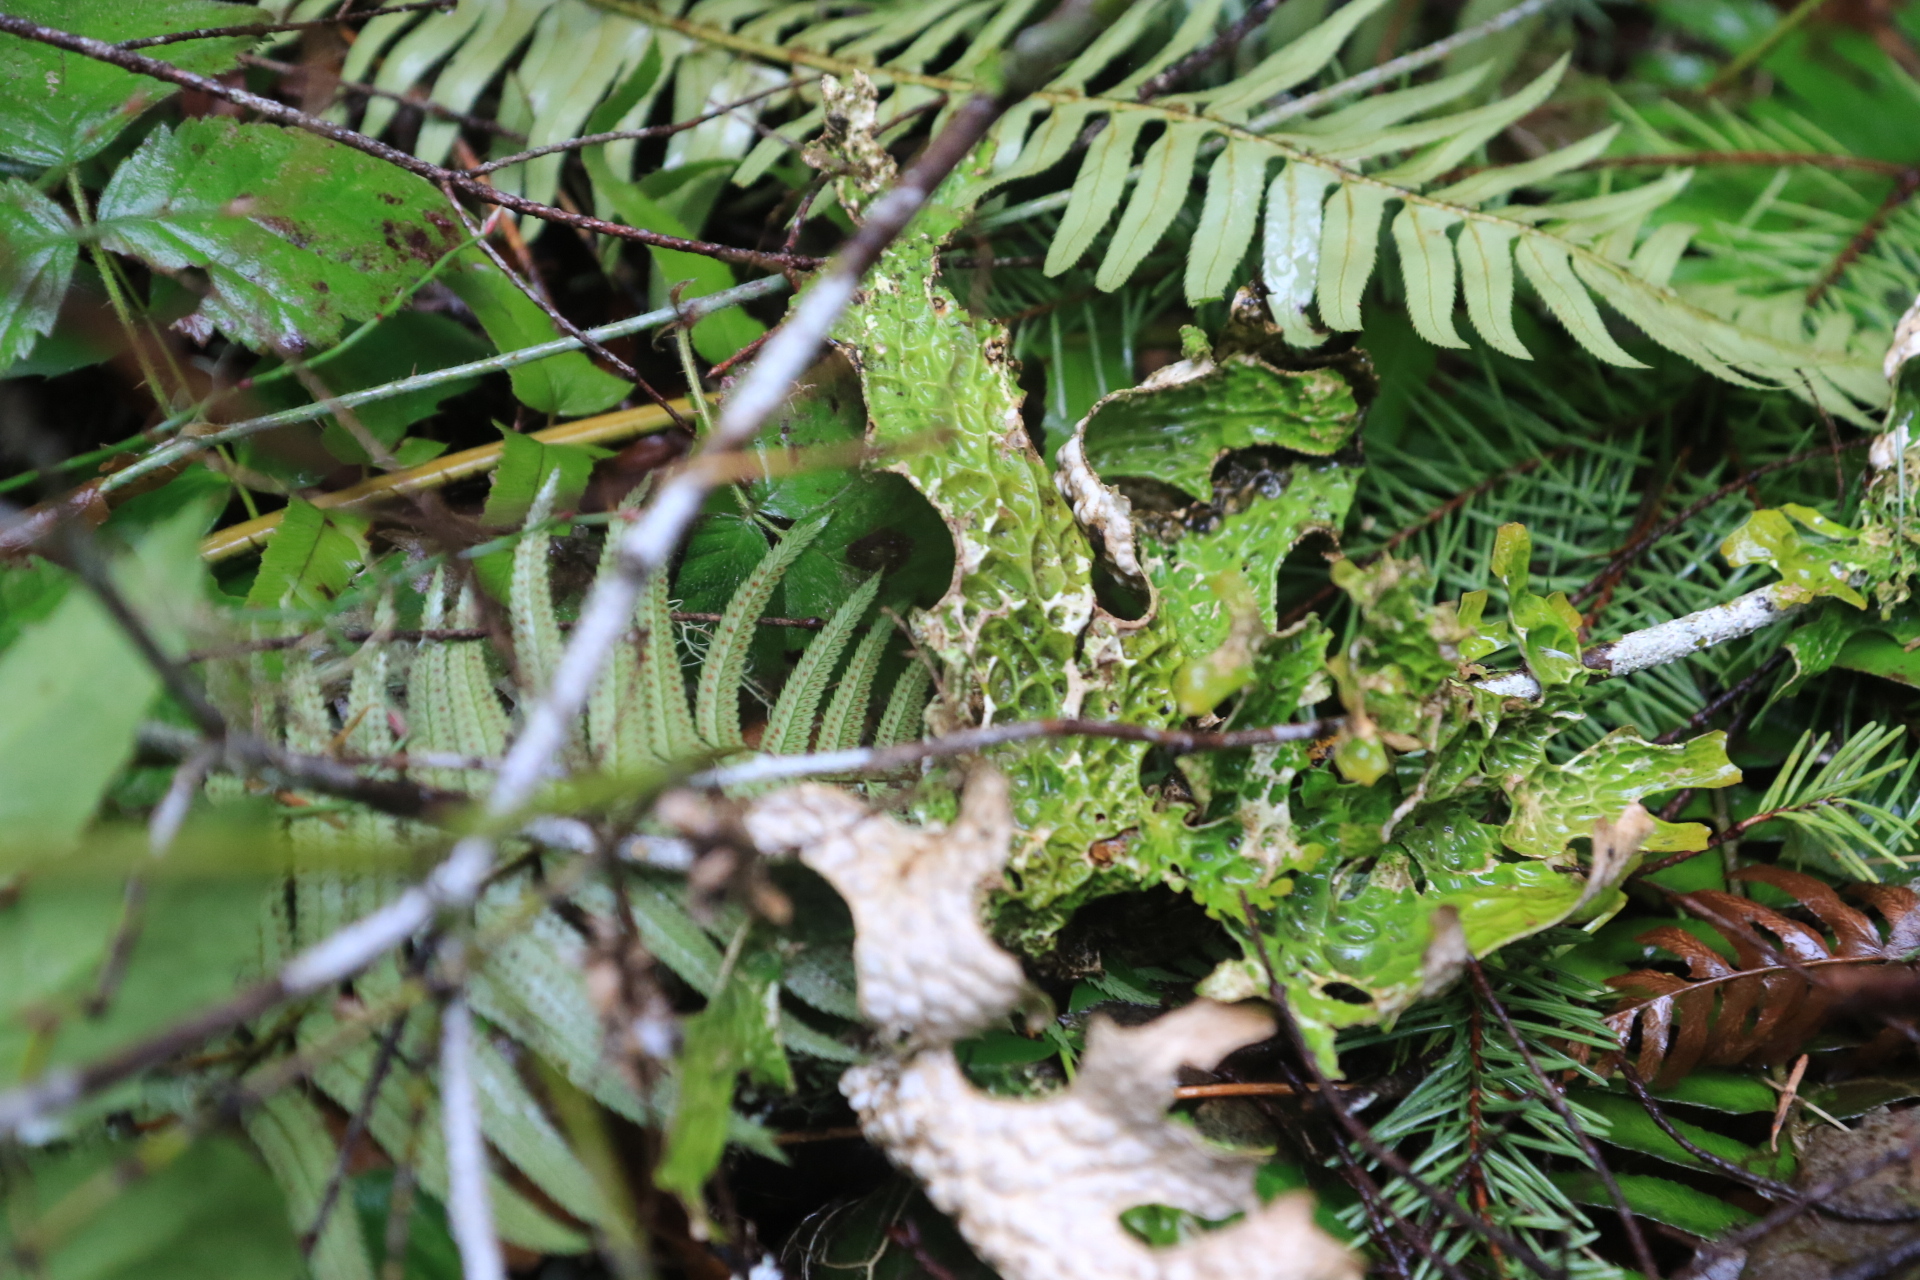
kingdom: Fungi
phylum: Ascomycota
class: Lecanoromycetes
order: Peltigerales
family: Lobariaceae
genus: Lobaria
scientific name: Lobaria pulmonaria
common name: Lungwort
